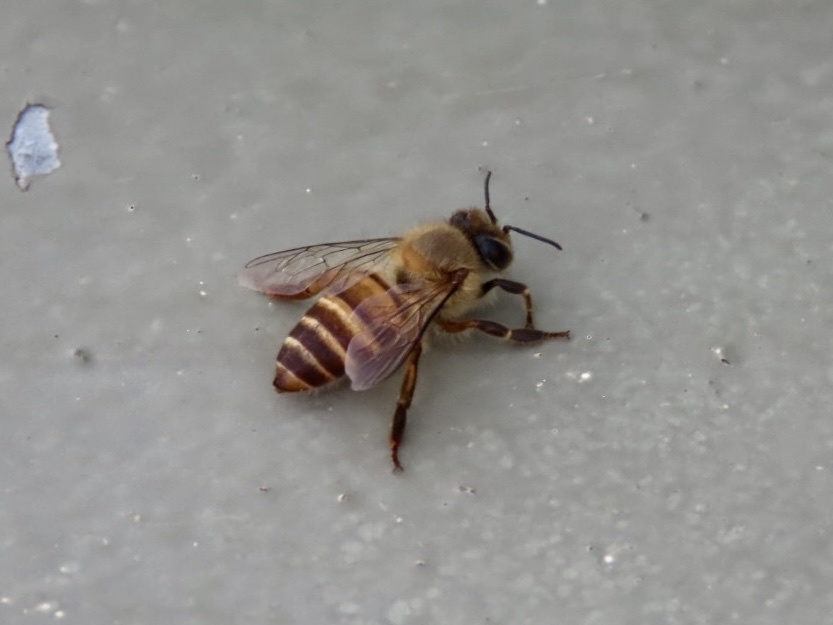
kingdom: Animalia
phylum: Arthropoda
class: Insecta
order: Hymenoptera
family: Apidae
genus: Apis
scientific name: Apis cerana
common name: Honey bee
